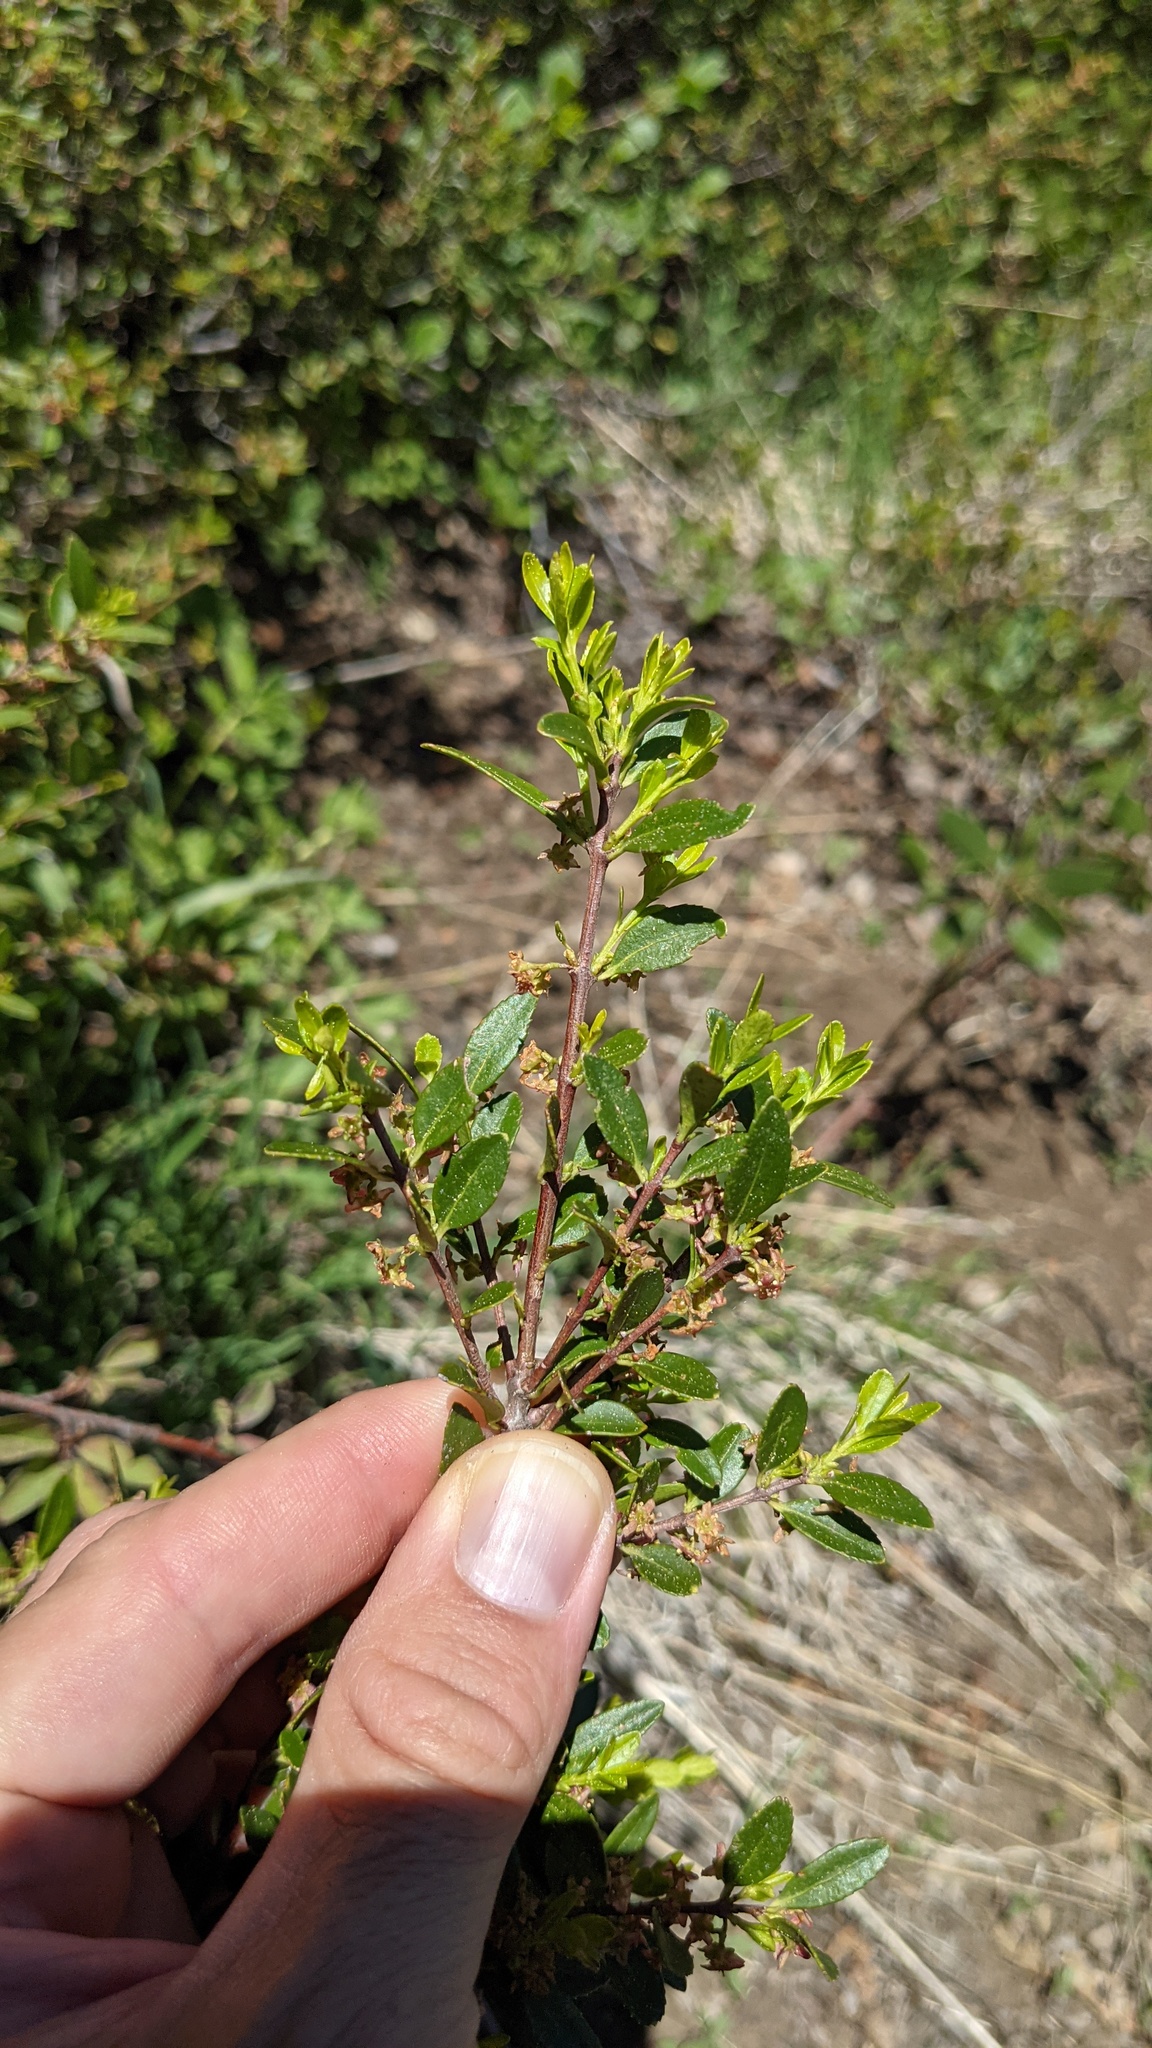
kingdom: Plantae
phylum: Tracheophyta
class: Magnoliopsida
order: Celastrales
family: Celastraceae
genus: Paxistima
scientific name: Paxistima myrsinites
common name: Mountain-lover
